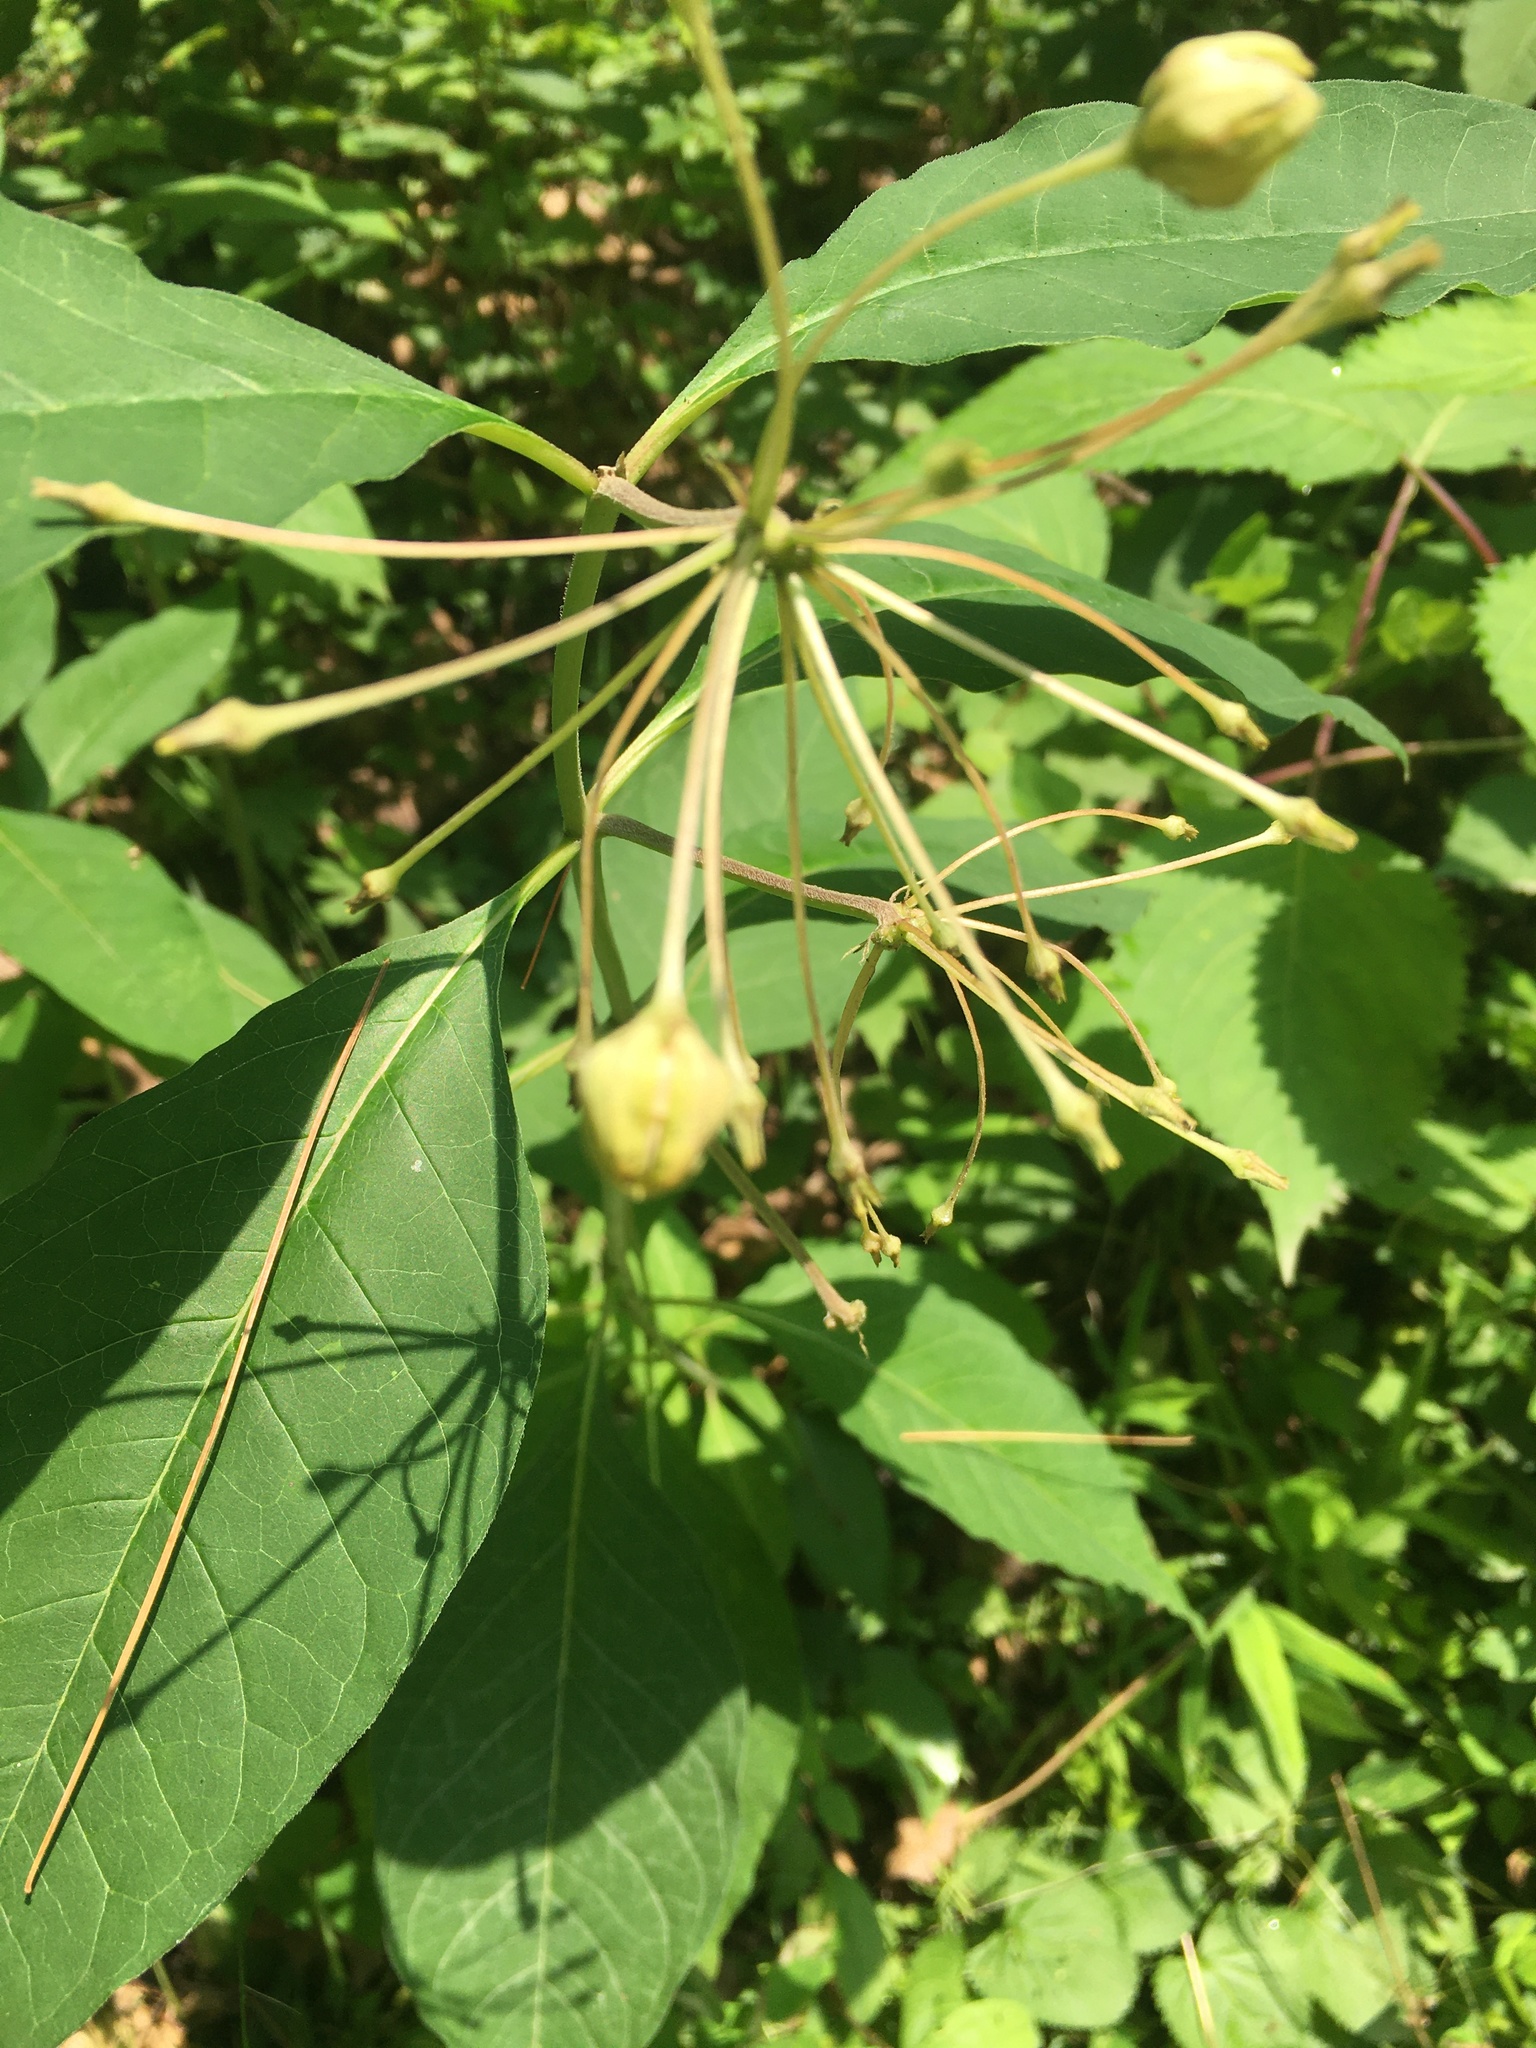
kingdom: Plantae
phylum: Tracheophyta
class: Magnoliopsida
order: Gentianales
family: Apocynaceae
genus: Asclepias
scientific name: Asclepias exaltata
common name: Poke milkweed
